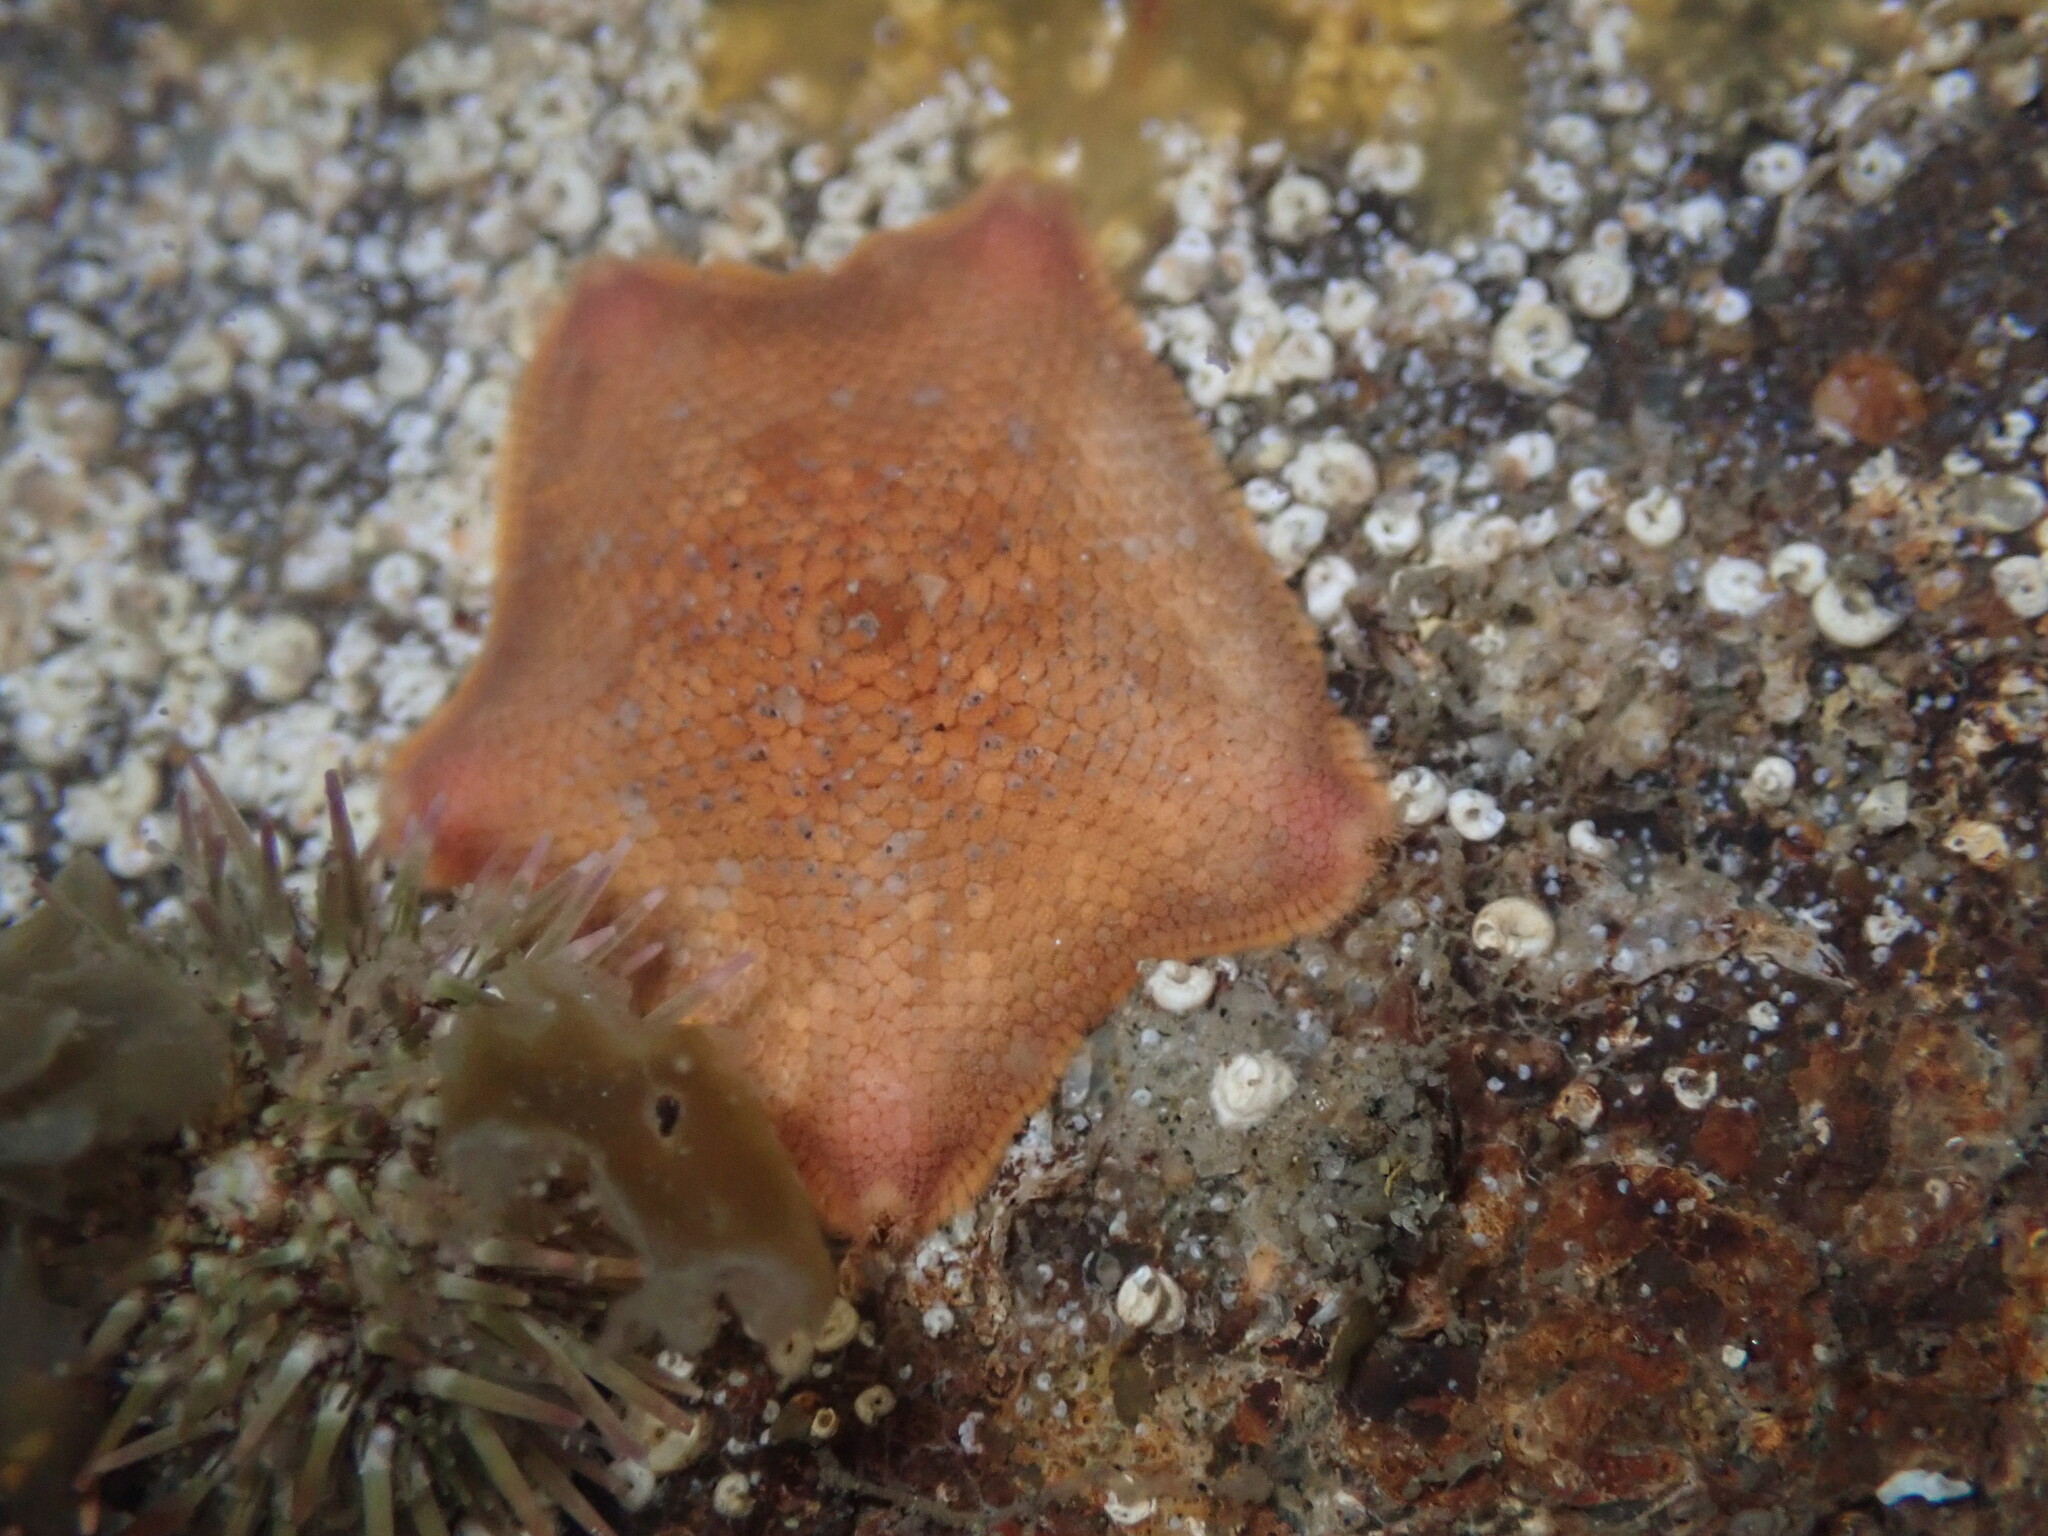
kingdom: Animalia
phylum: Echinodermata
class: Asteroidea
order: Valvatida
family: Asterinidae
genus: Patiria
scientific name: Patiria miniata
